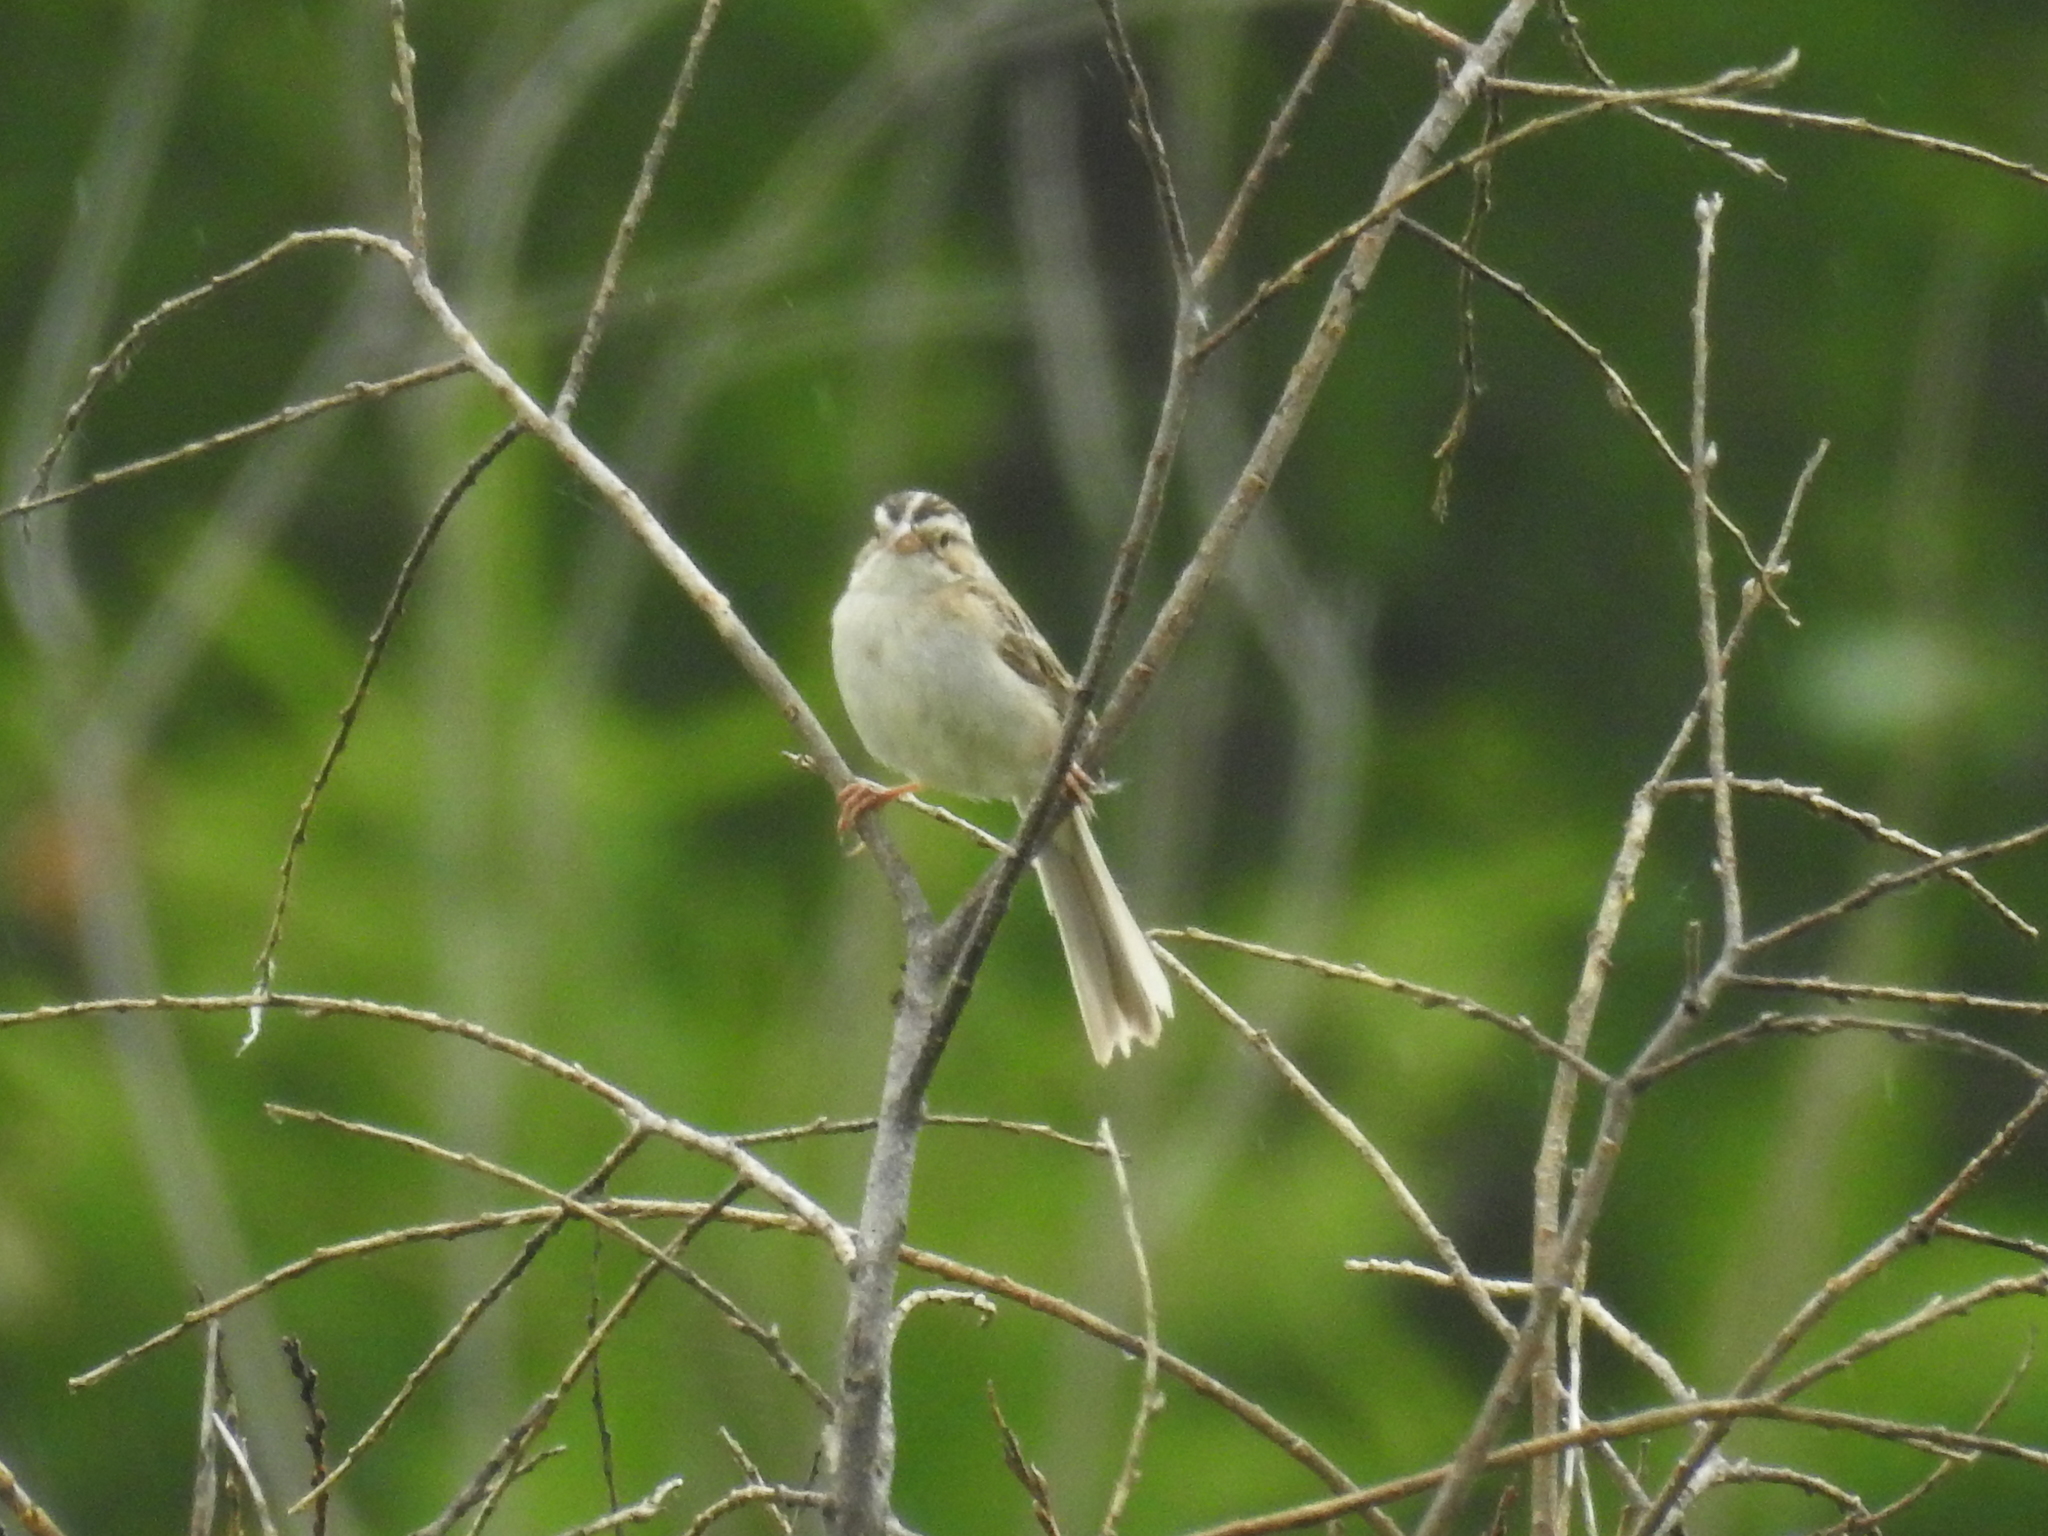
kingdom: Animalia
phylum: Chordata
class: Aves
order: Passeriformes
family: Passerellidae
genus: Spizella
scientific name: Spizella pallida
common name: Clay-colored sparrow
